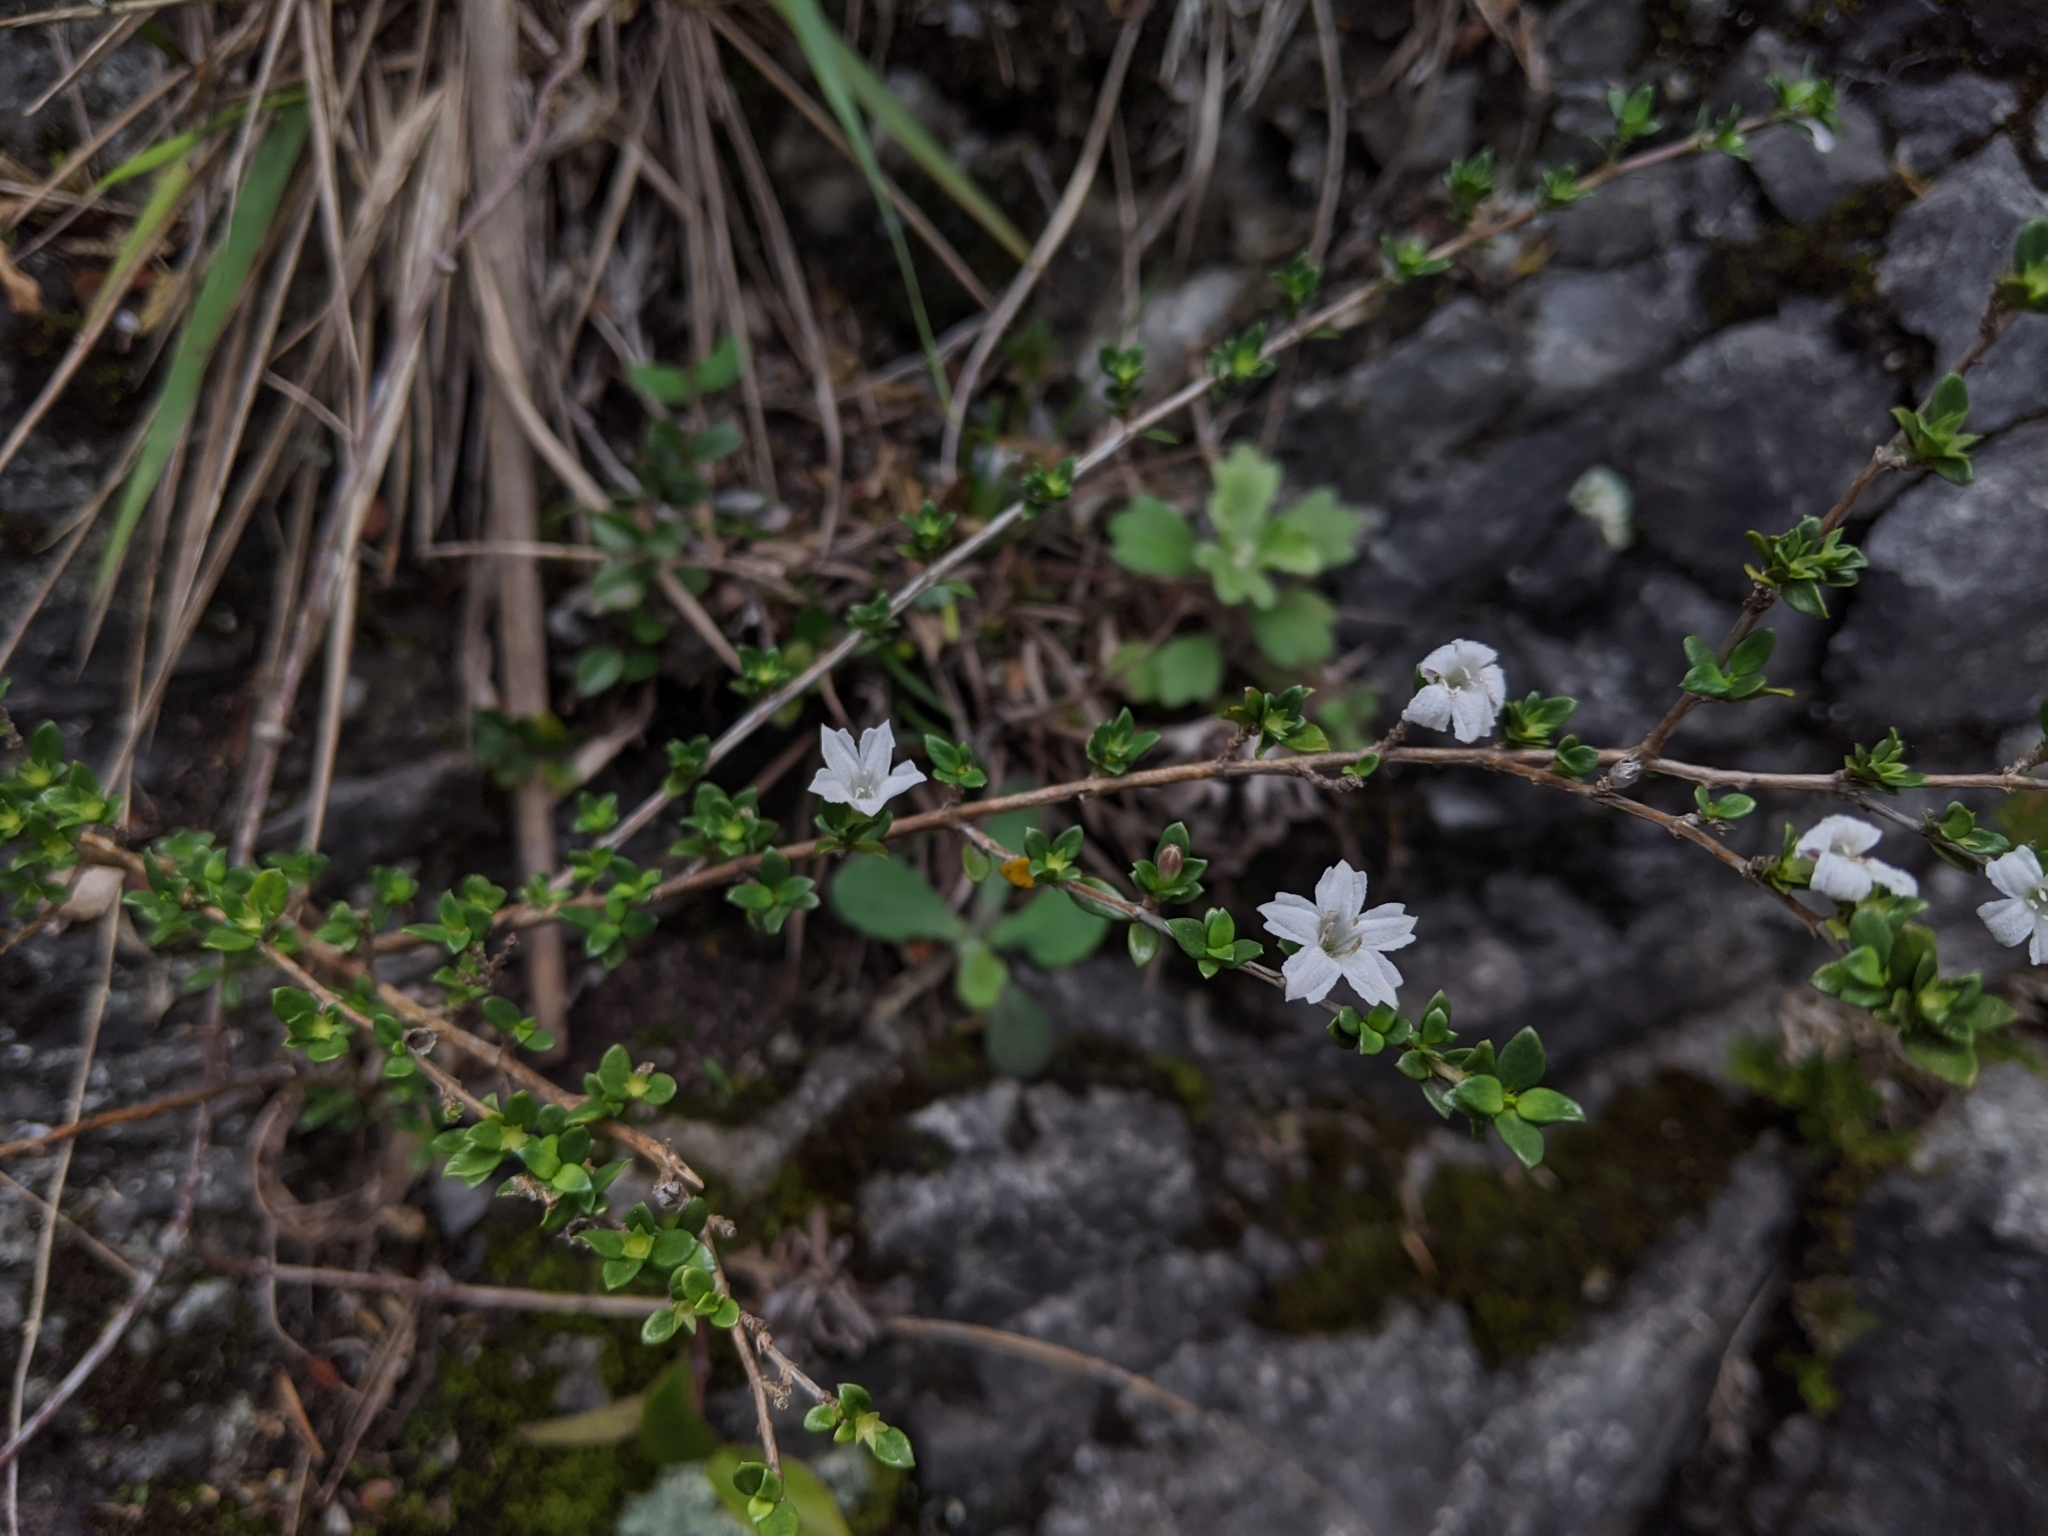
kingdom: Plantae
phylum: Tracheophyta
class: Magnoliopsida
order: Gentianales
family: Rubiaceae
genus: Buchozia
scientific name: Buchozia japonica
